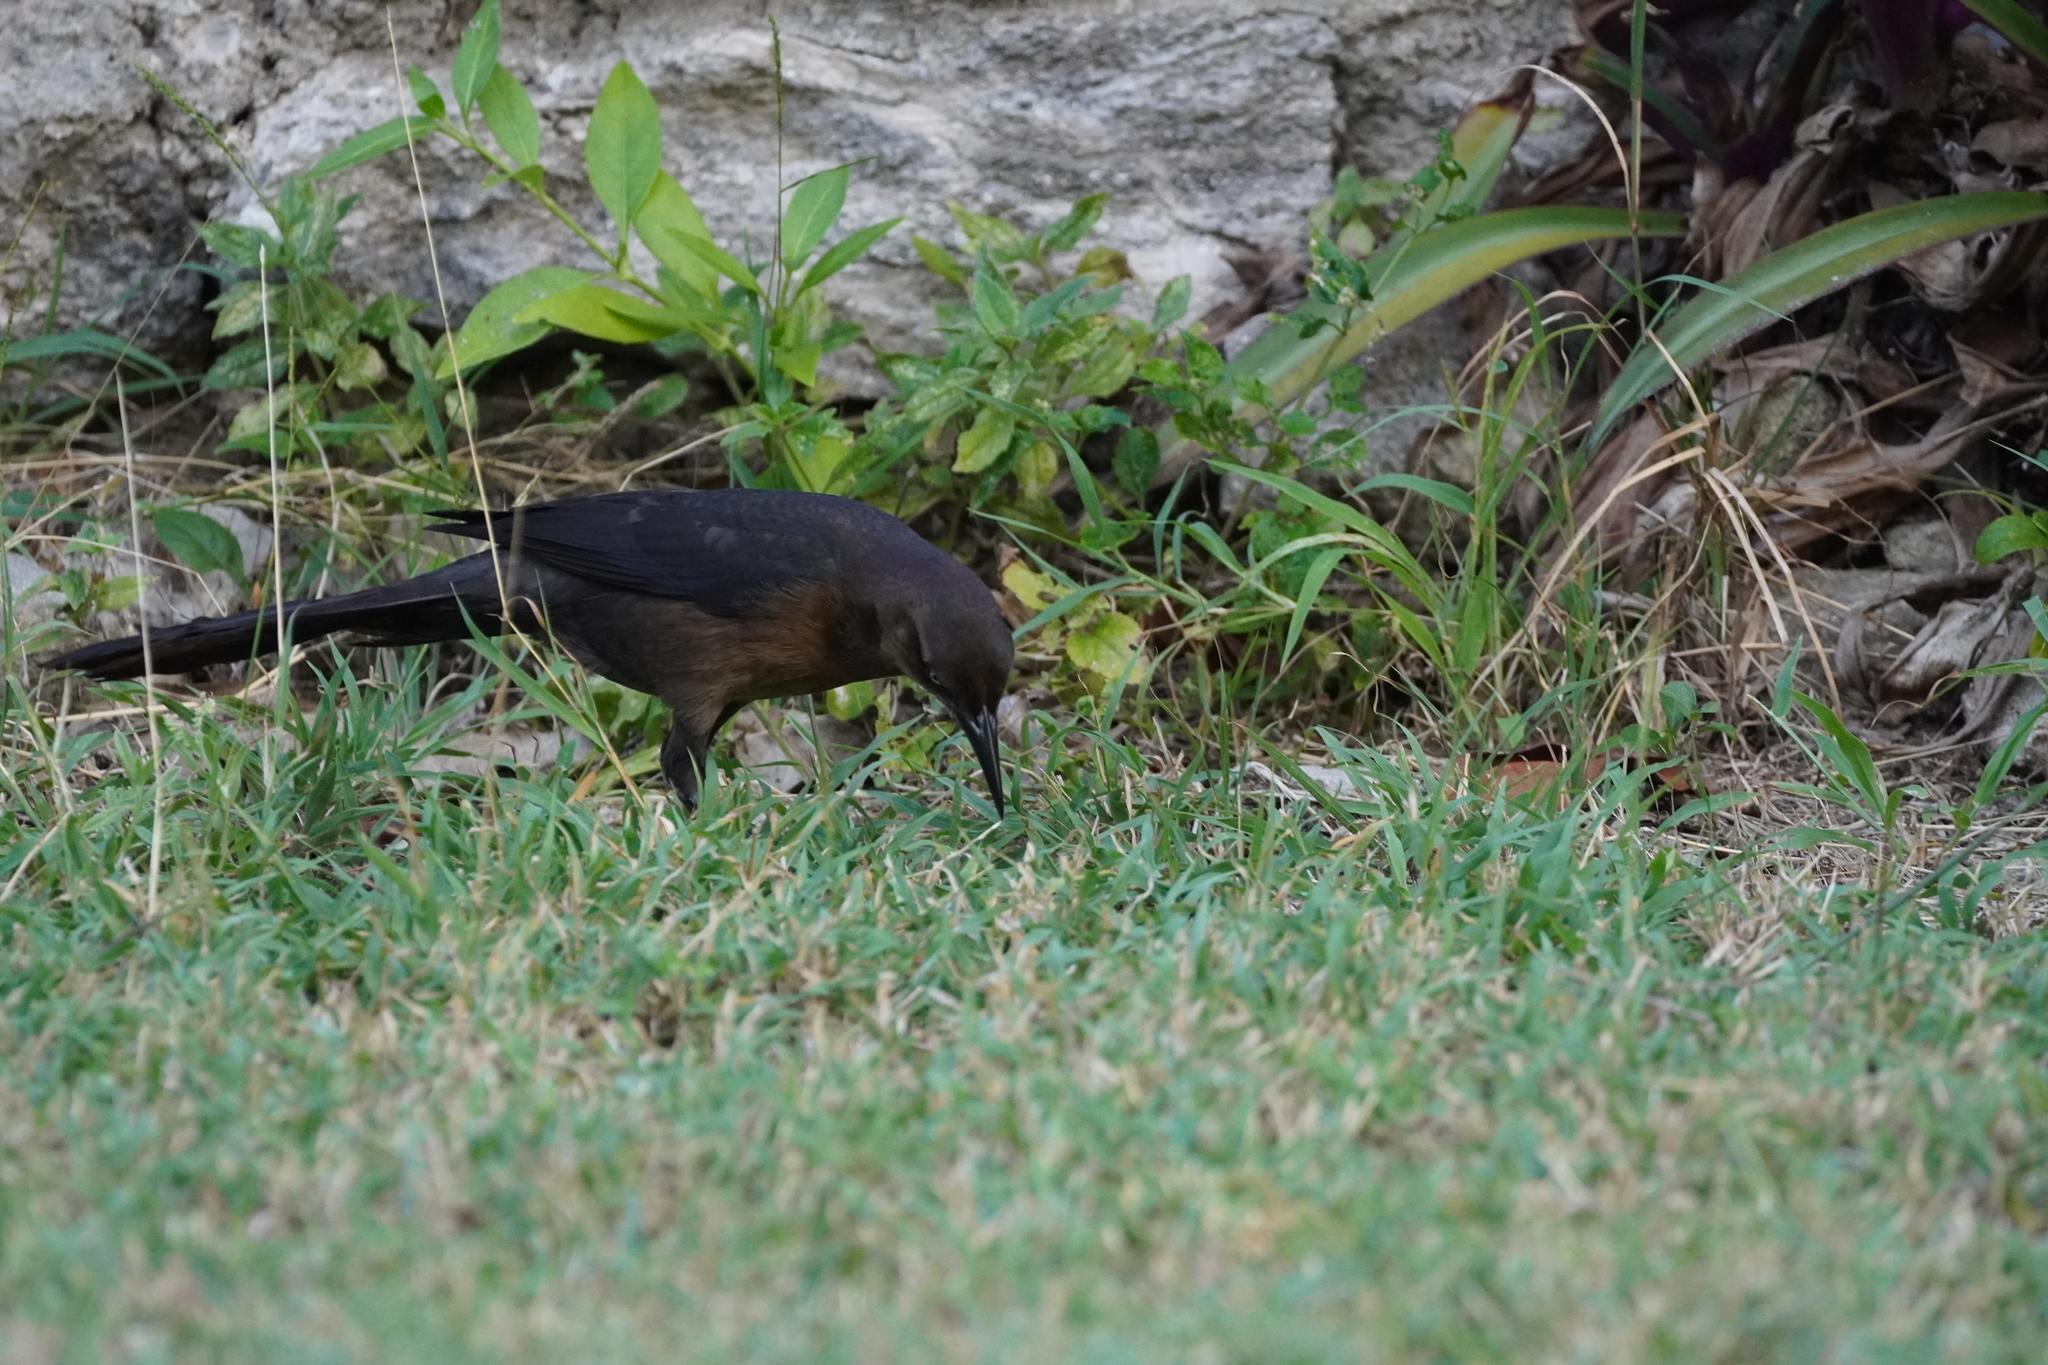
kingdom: Animalia
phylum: Chordata
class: Aves
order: Passeriformes
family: Icteridae
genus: Quiscalus
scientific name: Quiscalus mexicanus
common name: Great-tailed grackle
